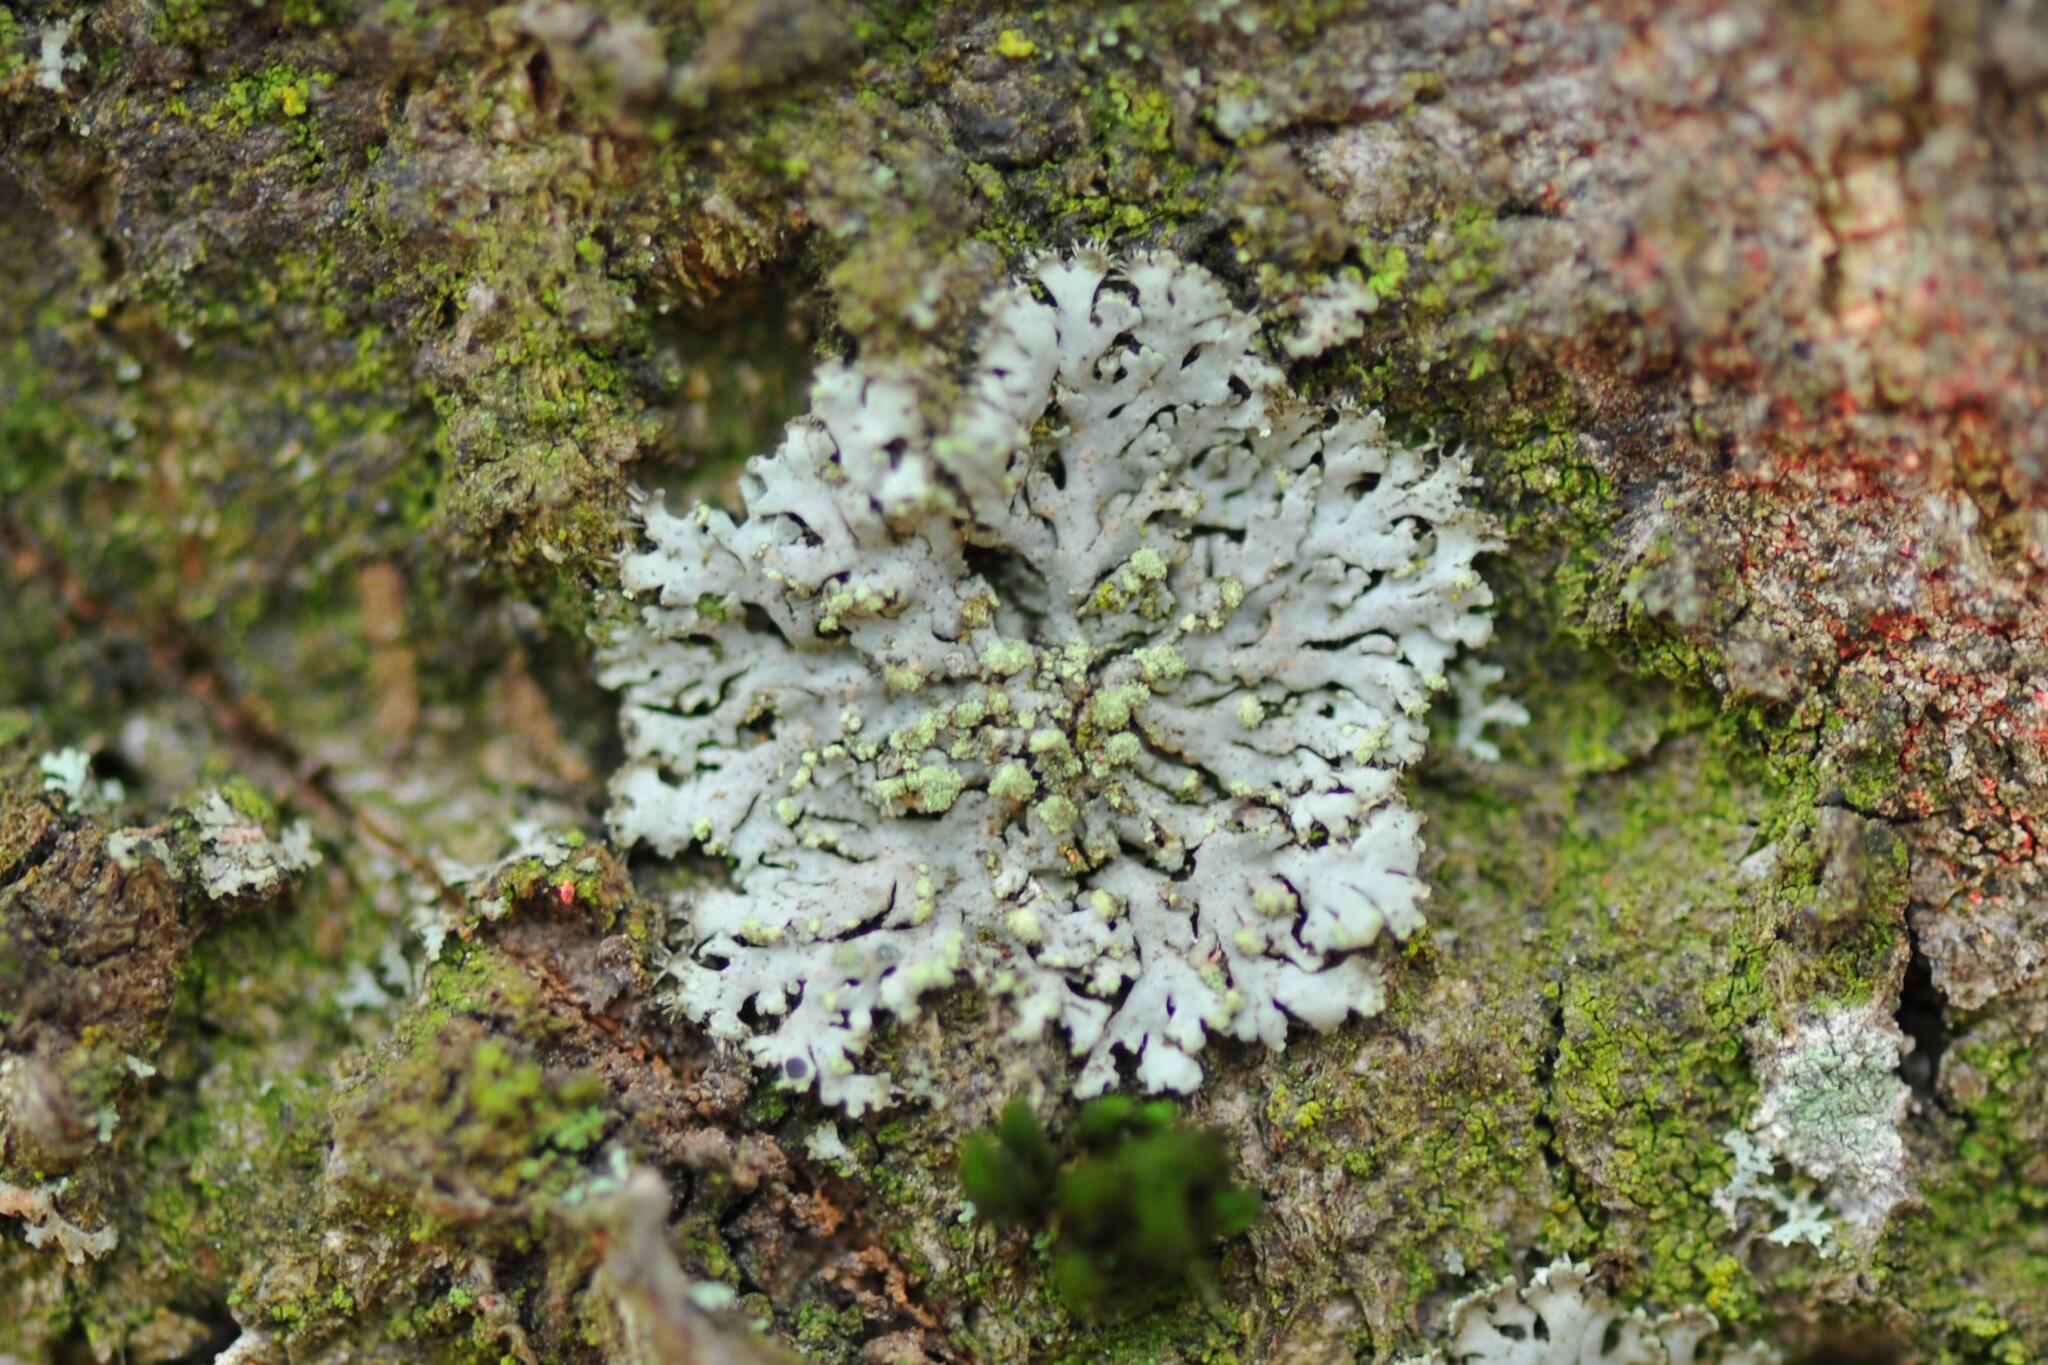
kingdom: Fungi
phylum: Ascomycota
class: Lecanoromycetes
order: Caliciales
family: Physciaceae
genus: Phaeophyscia
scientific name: Phaeophyscia orbicularis
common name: Mealy shadow lichen
